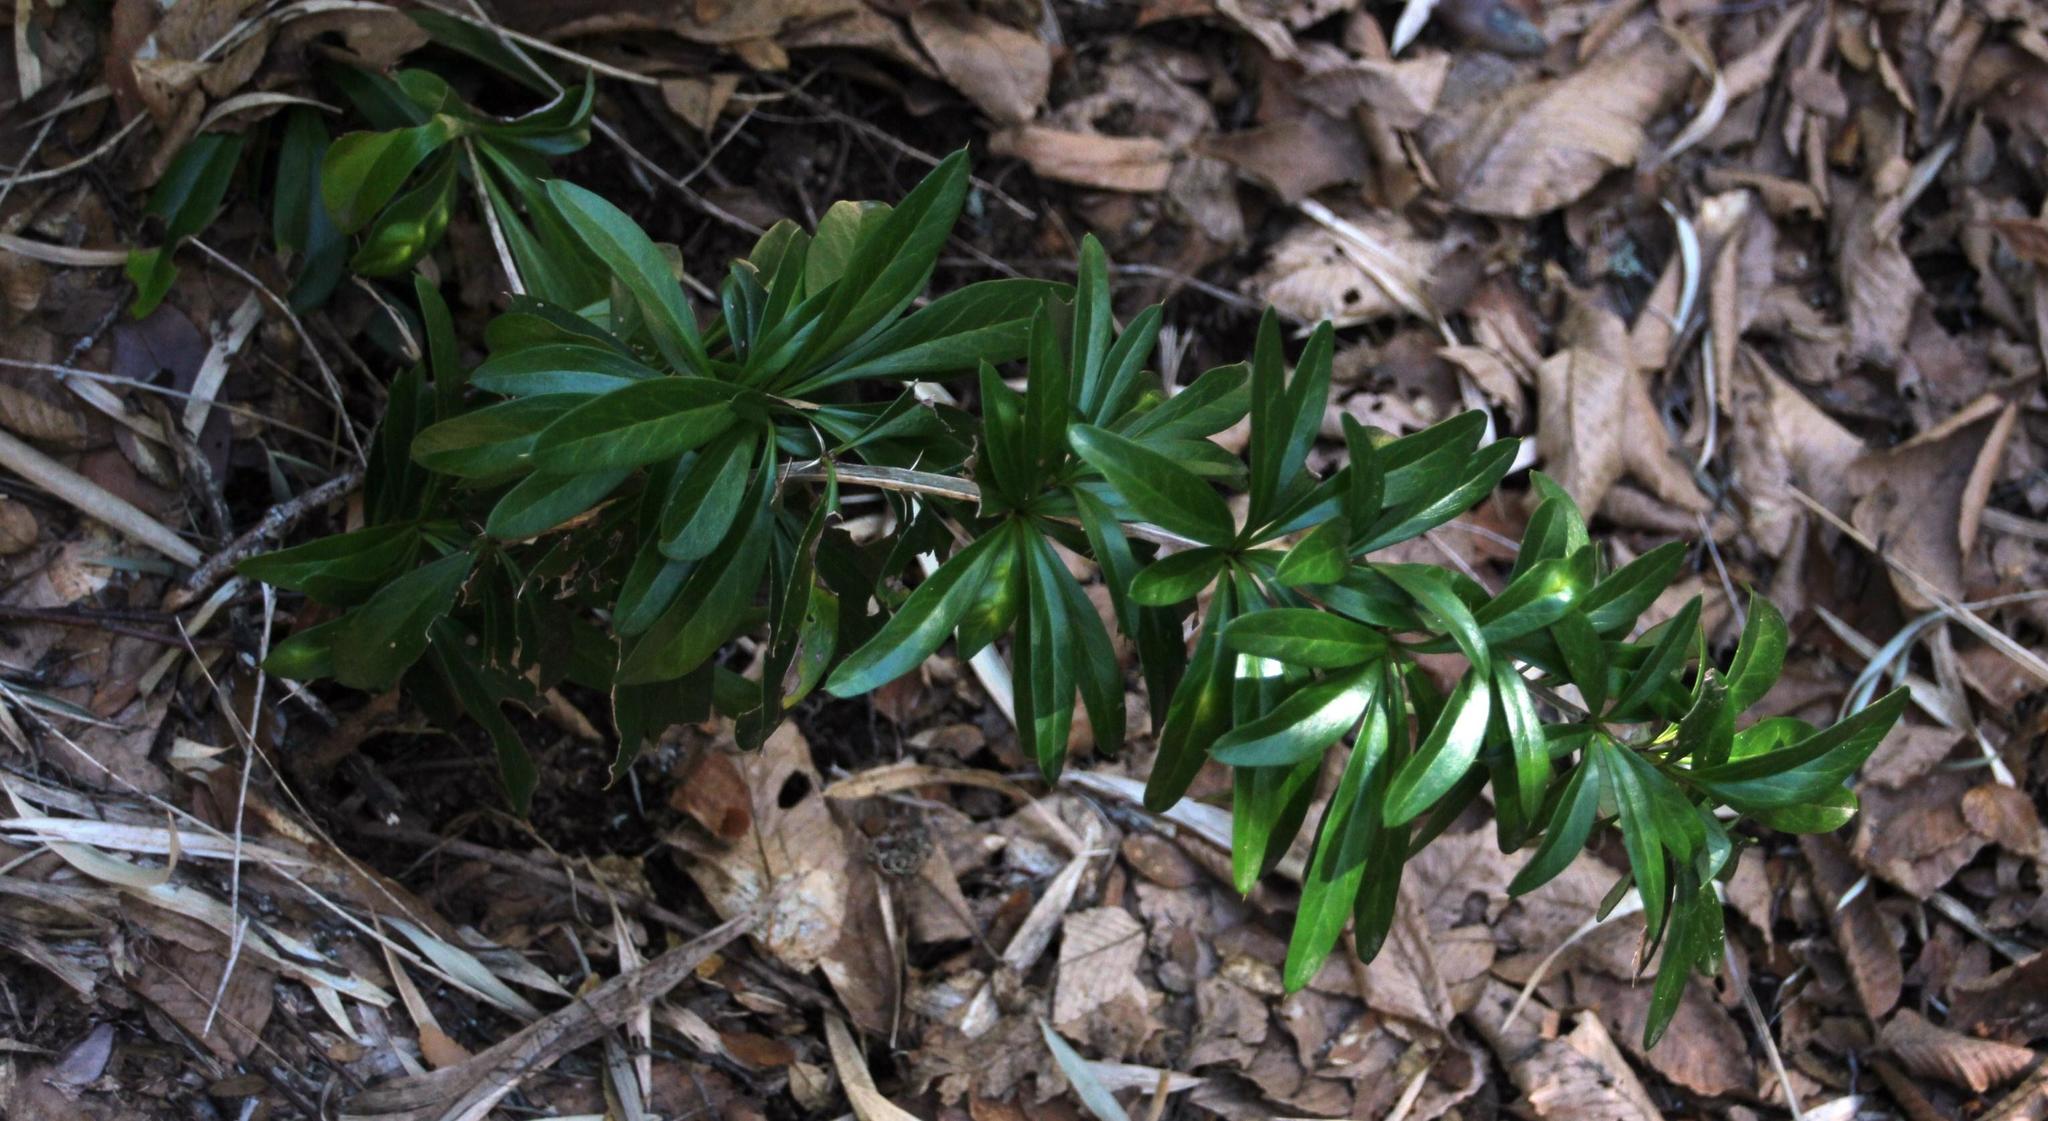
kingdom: Plantae
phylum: Tracheophyta
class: Magnoliopsida
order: Ranunculales
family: Berberidaceae
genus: Berberis
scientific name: Berberis trigona
